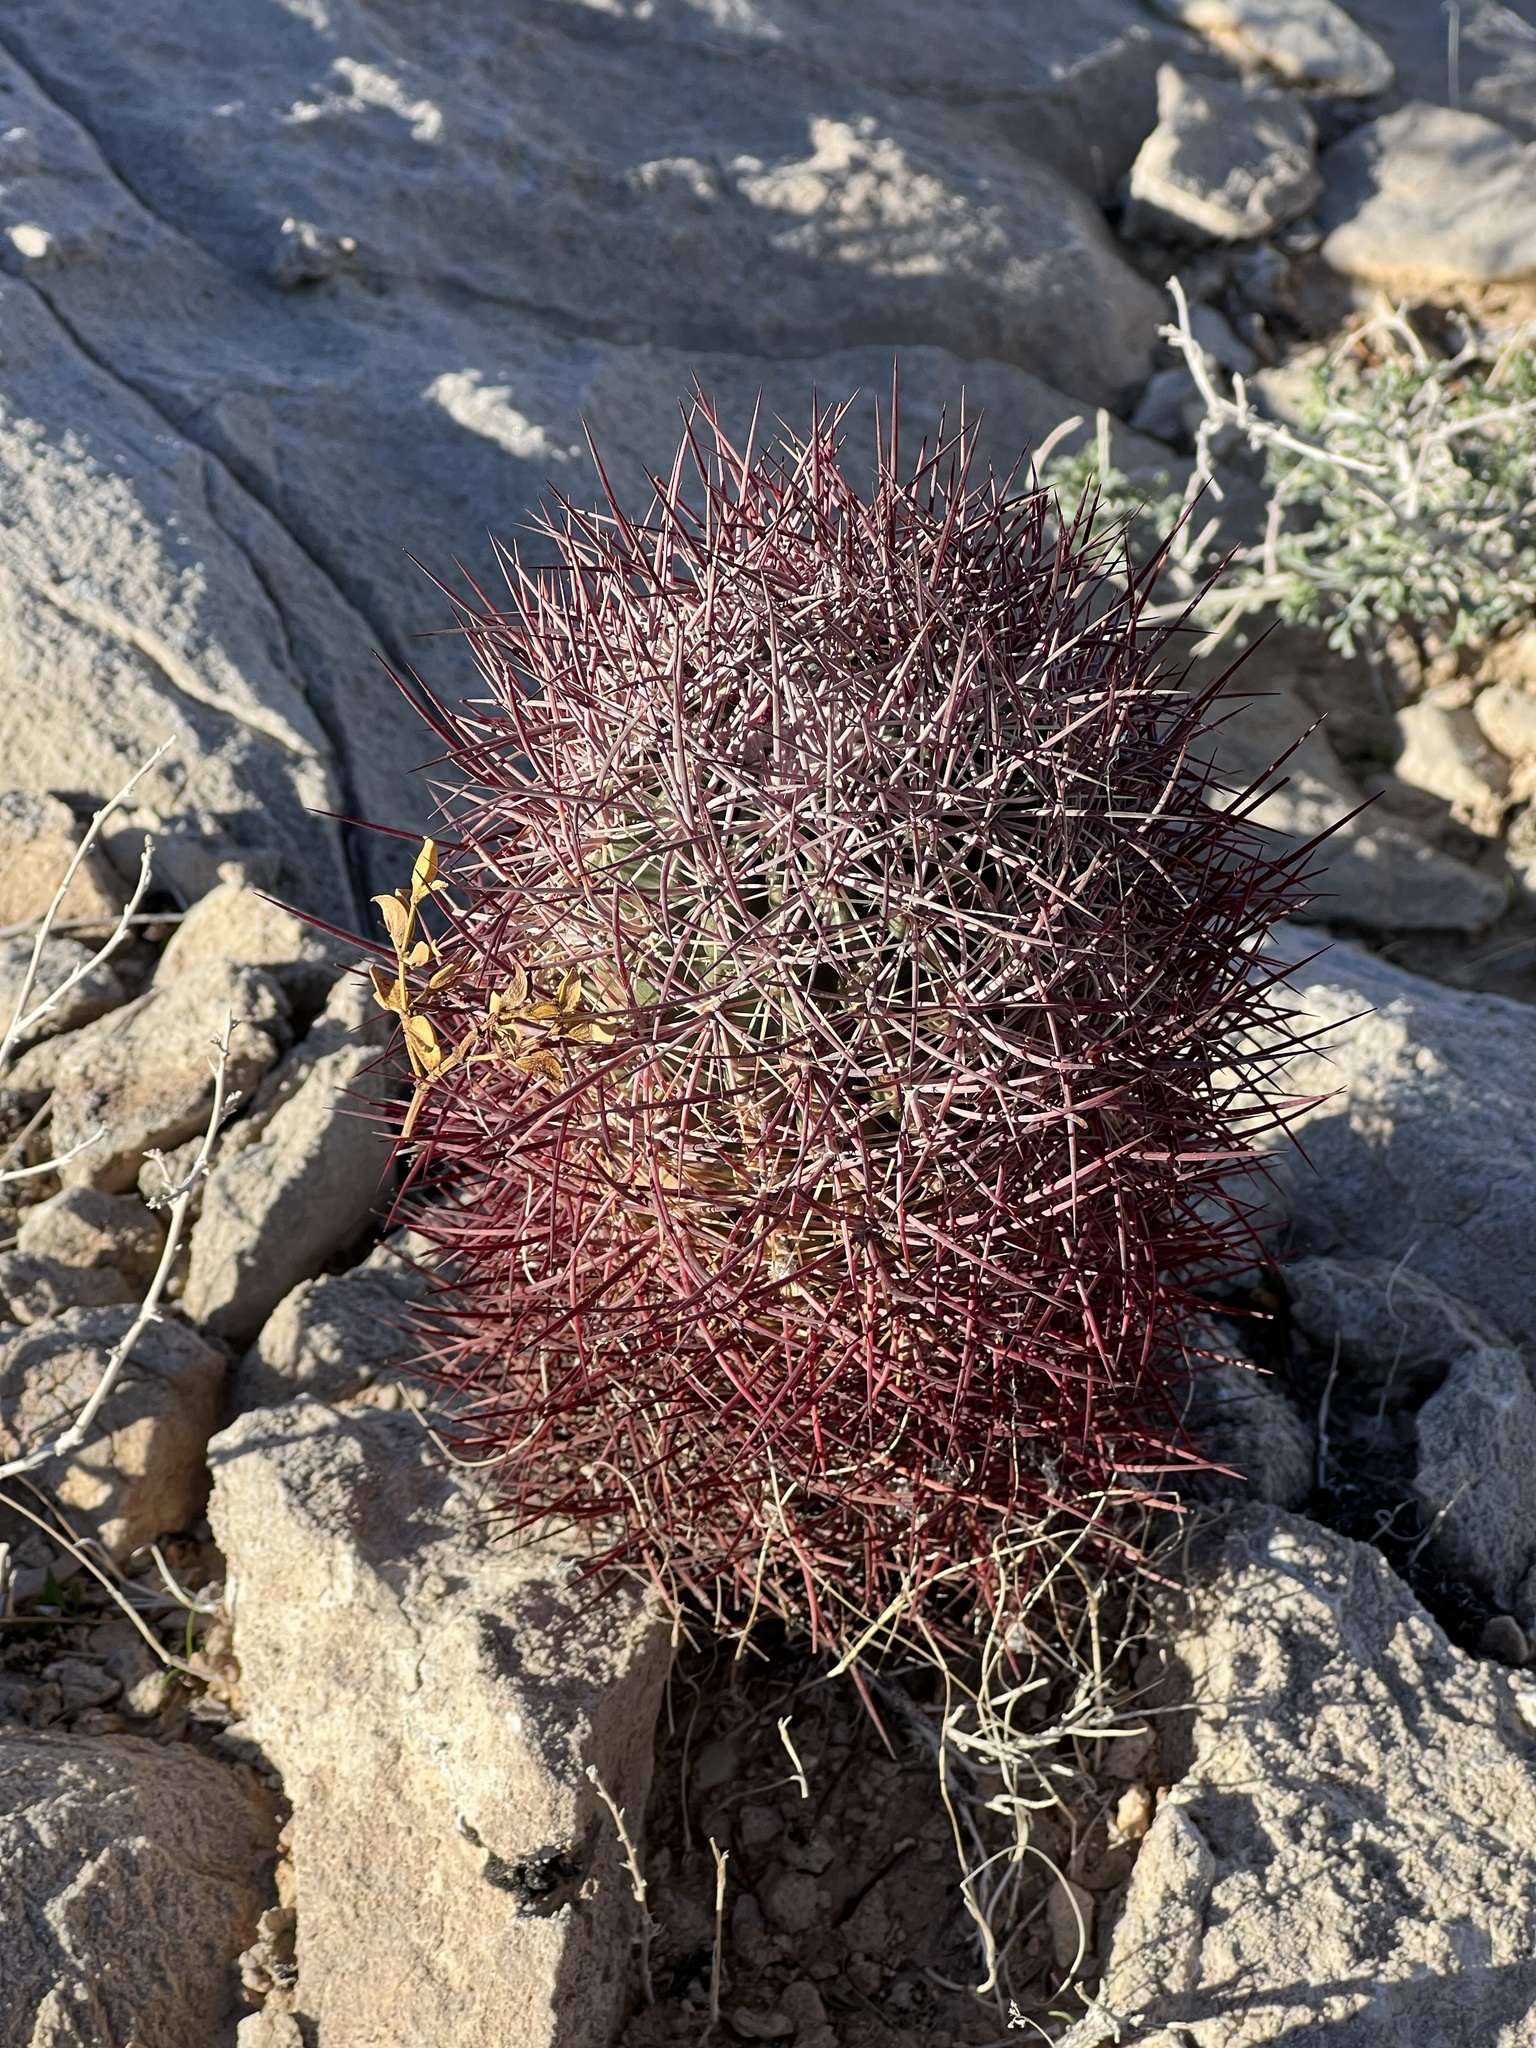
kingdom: Plantae
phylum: Tracheophyta
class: Magnoliopsida
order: Caryophyllales
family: Cactaceae
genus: Sclerocactus
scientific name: Sclerocactus johnsonii
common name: Eight-spine fishhook cactus
